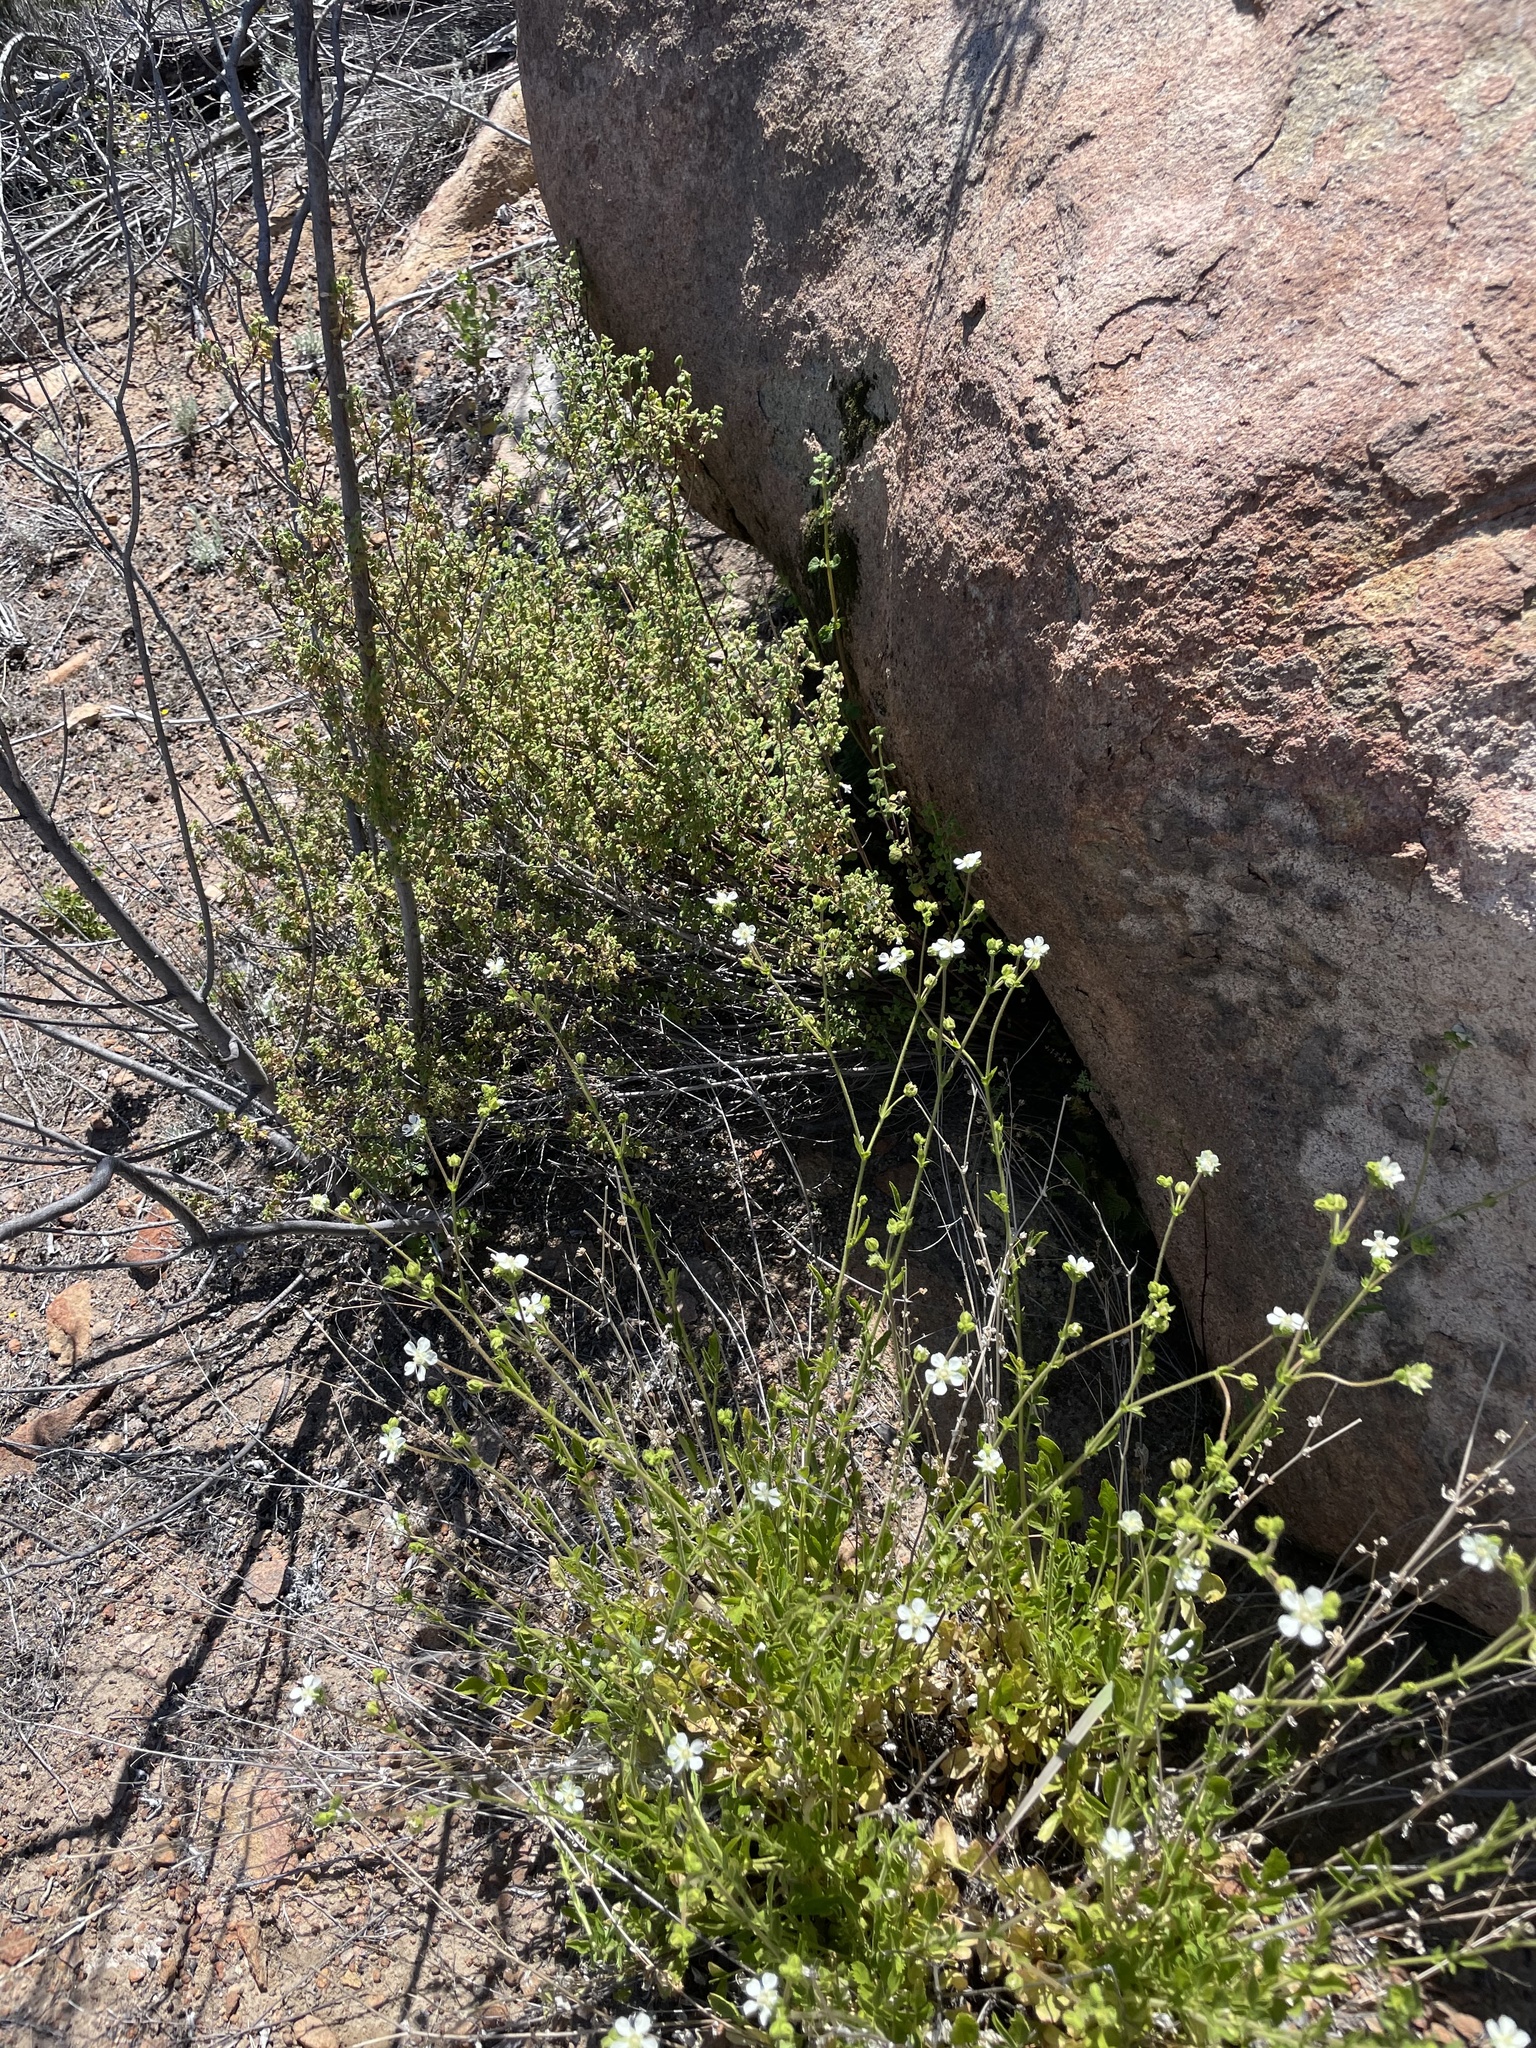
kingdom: Plantae
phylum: Tracheophyta
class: Magnoliopsida
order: Rosales
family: Rosaceae
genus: Potentilla
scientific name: Potentilla truncata
